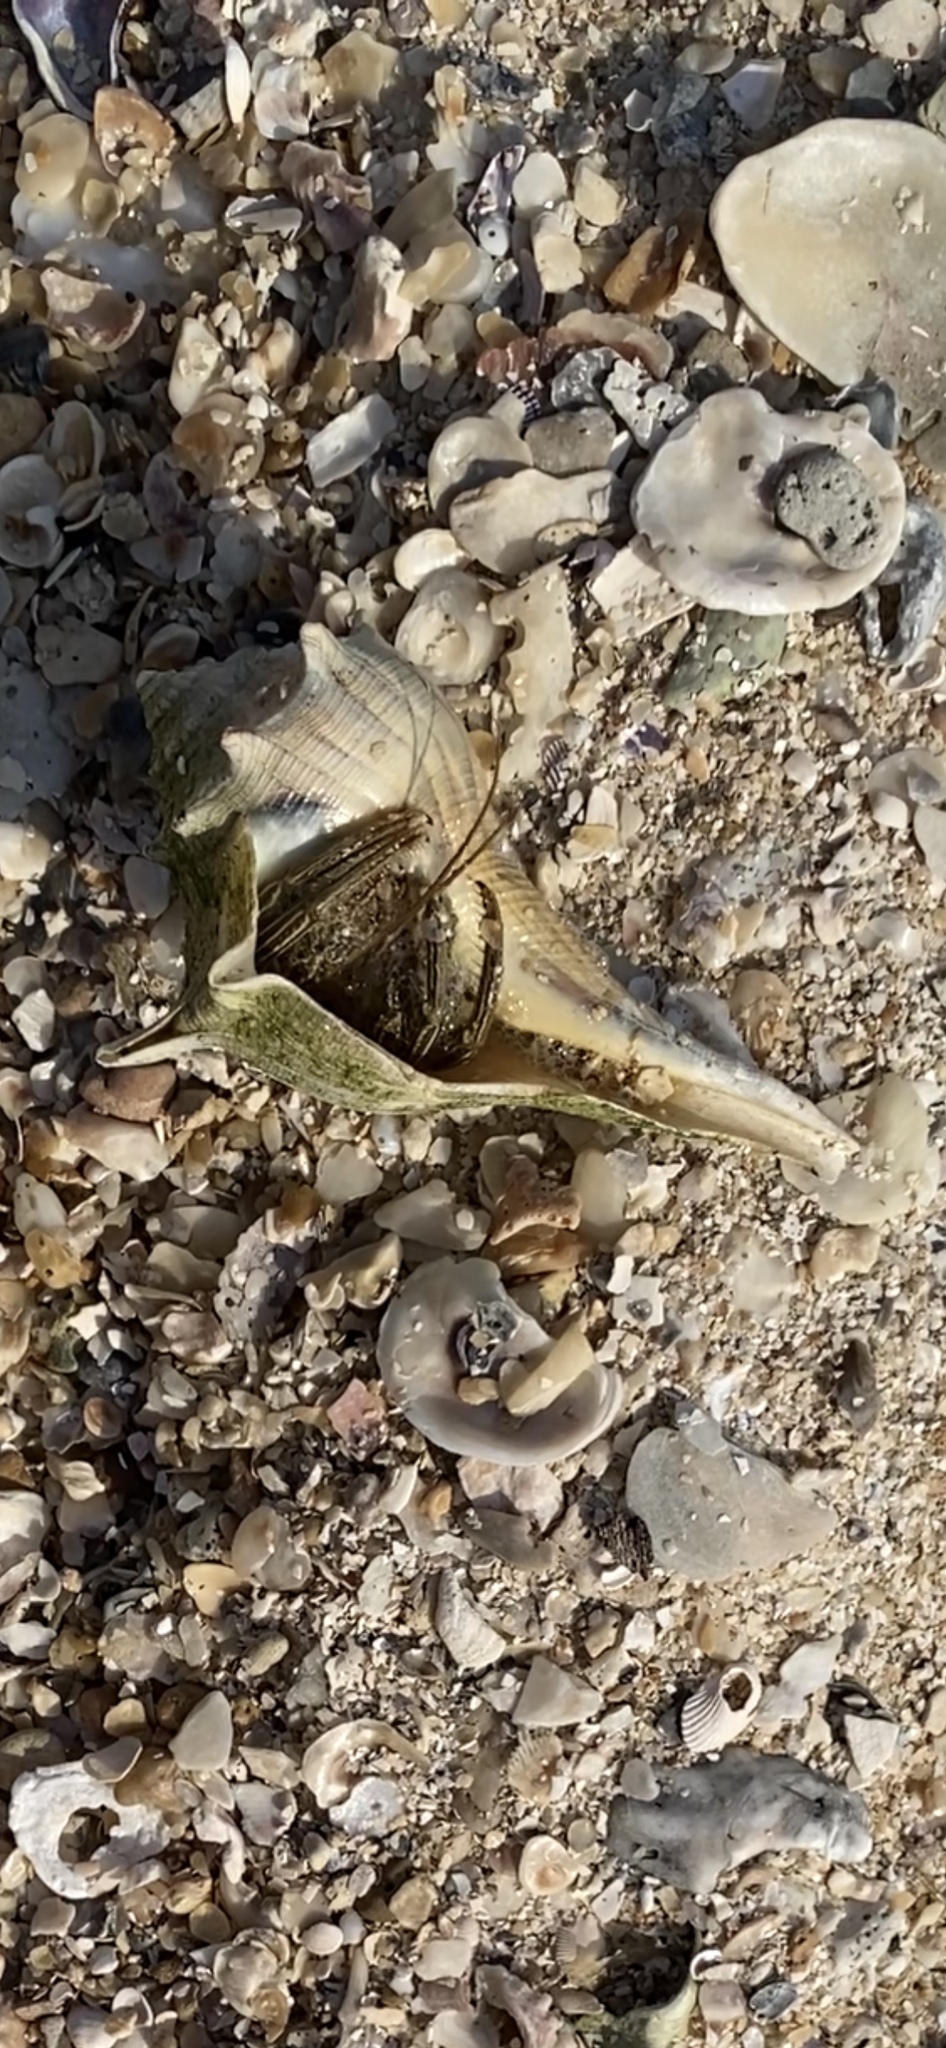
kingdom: Animalia
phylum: Arthropoda
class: Malacostraca
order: Decapoda
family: Diogenidae
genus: Clibanarius
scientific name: Clibanarius vittatus
